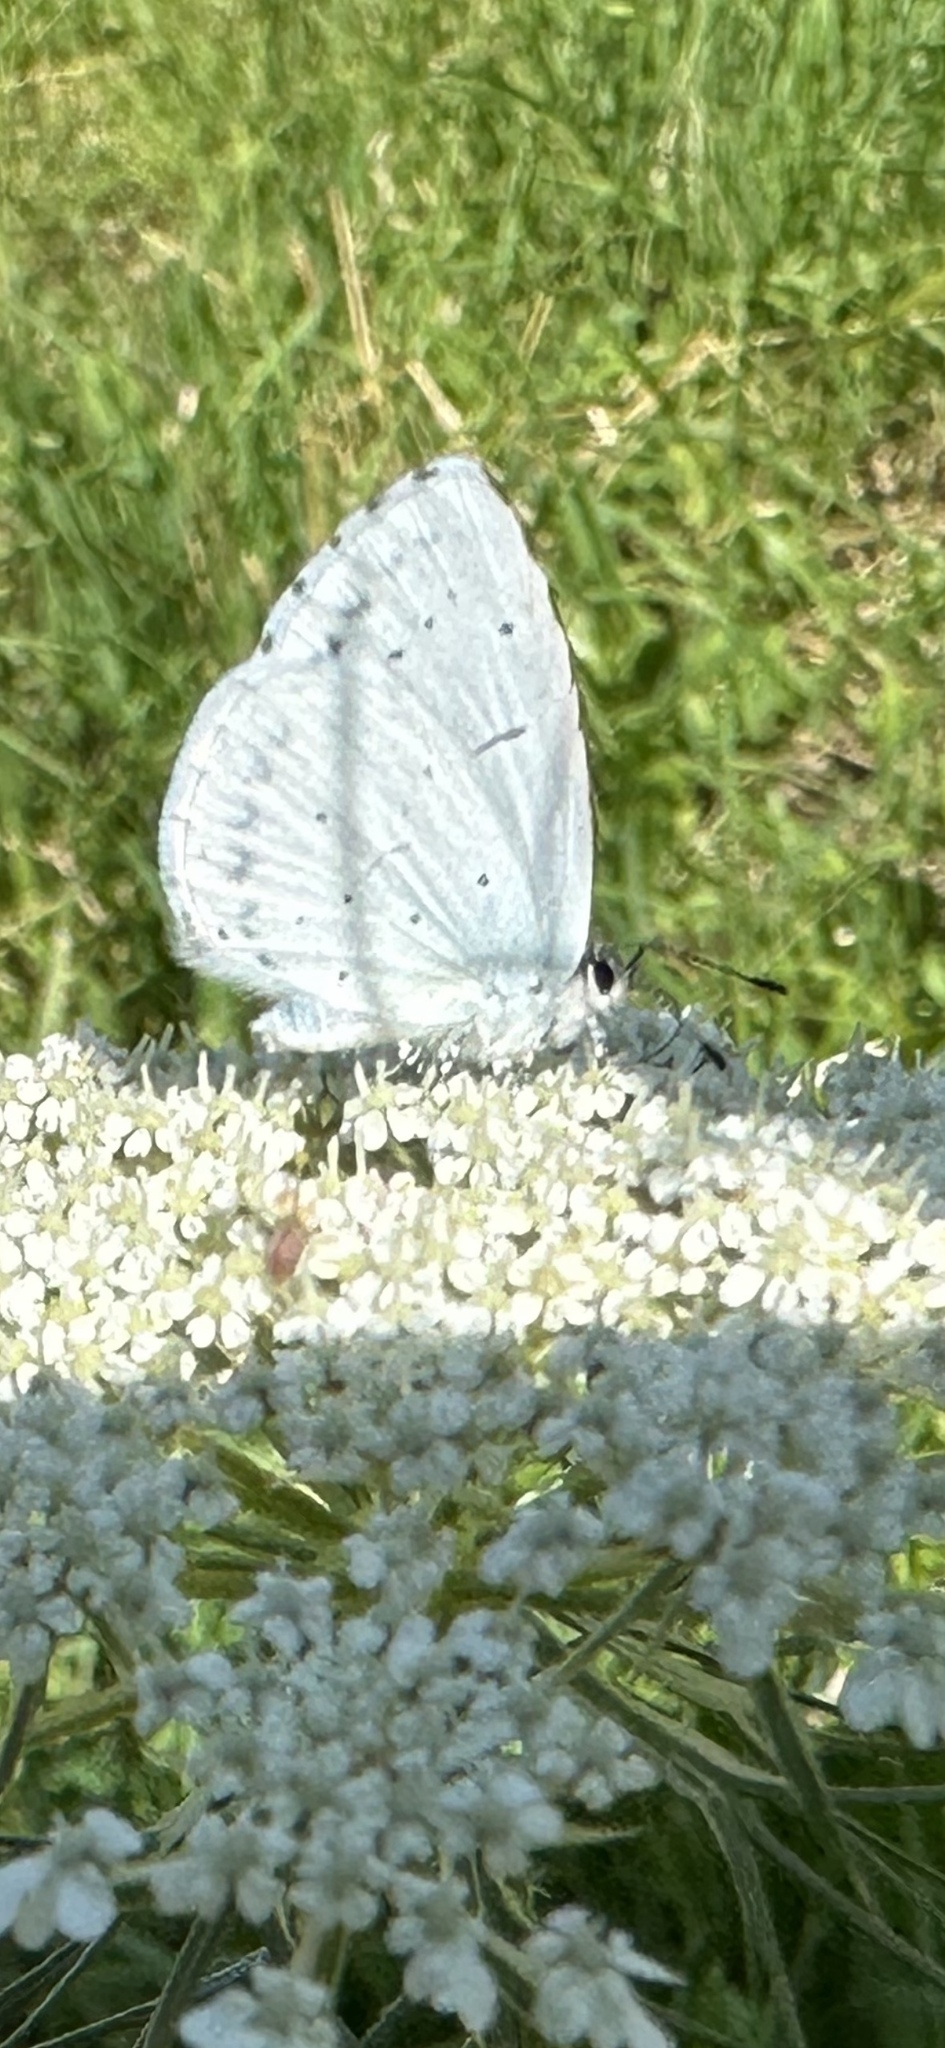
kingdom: Animalia
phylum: Arthropoda
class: Insecta
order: Lepidoptera
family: Lycaenidae
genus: Celastrina
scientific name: Celastrina argiolus
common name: Holly blue
